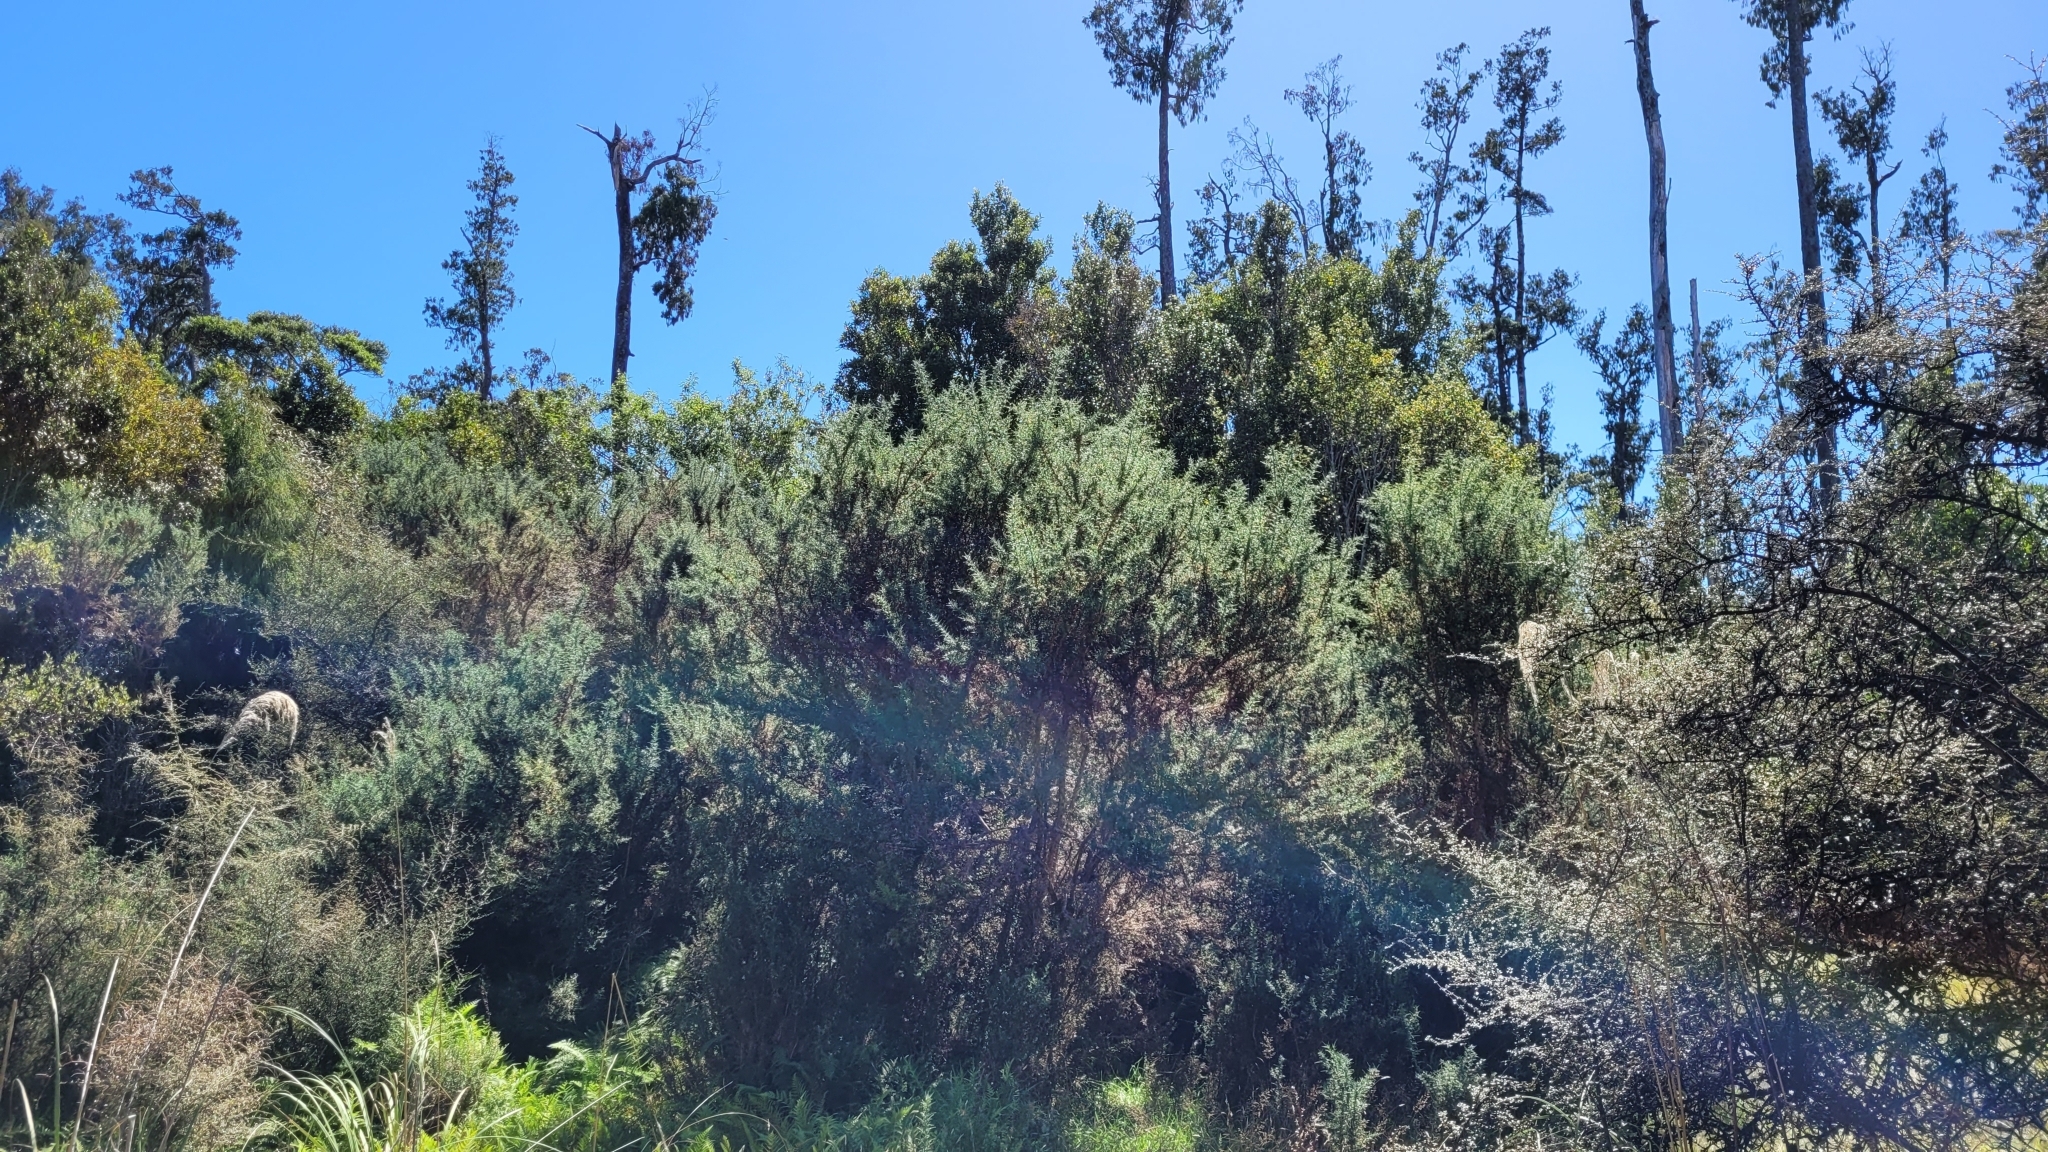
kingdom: Plantae
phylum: Tracheophyta
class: Magnoliopsida
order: Fabales
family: Fabaceae
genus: Ulex
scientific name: Ulex europaeus
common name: Common gorse
